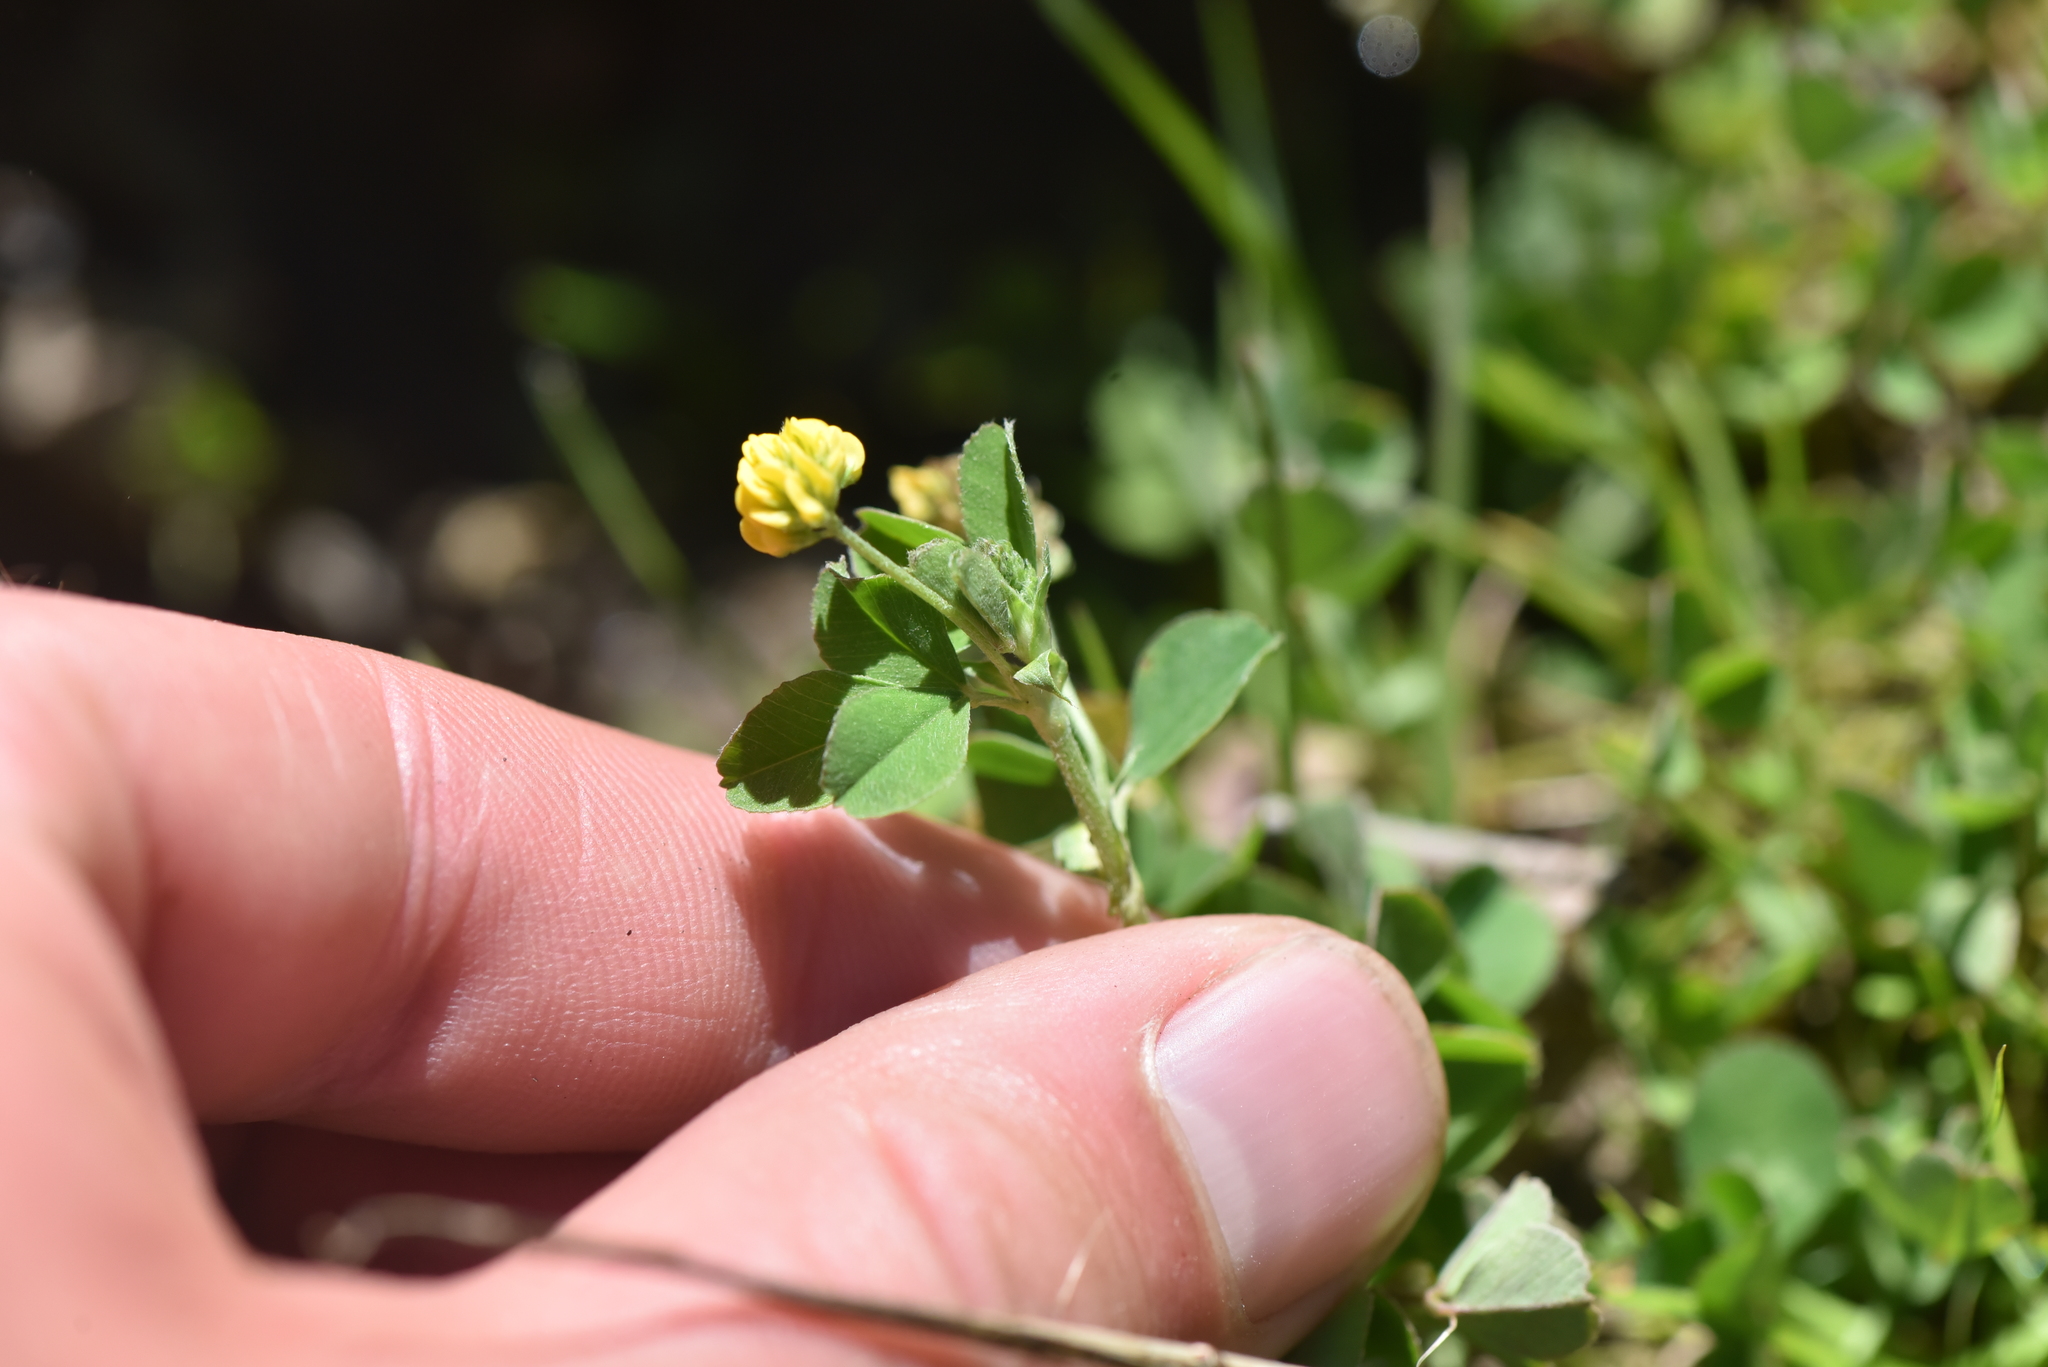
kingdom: Plantae
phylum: Tracheophyta
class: Magnoliopsida
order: Fabales
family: Fabaceae
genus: Medicago
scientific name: Medicago lupulina
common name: Black medick
